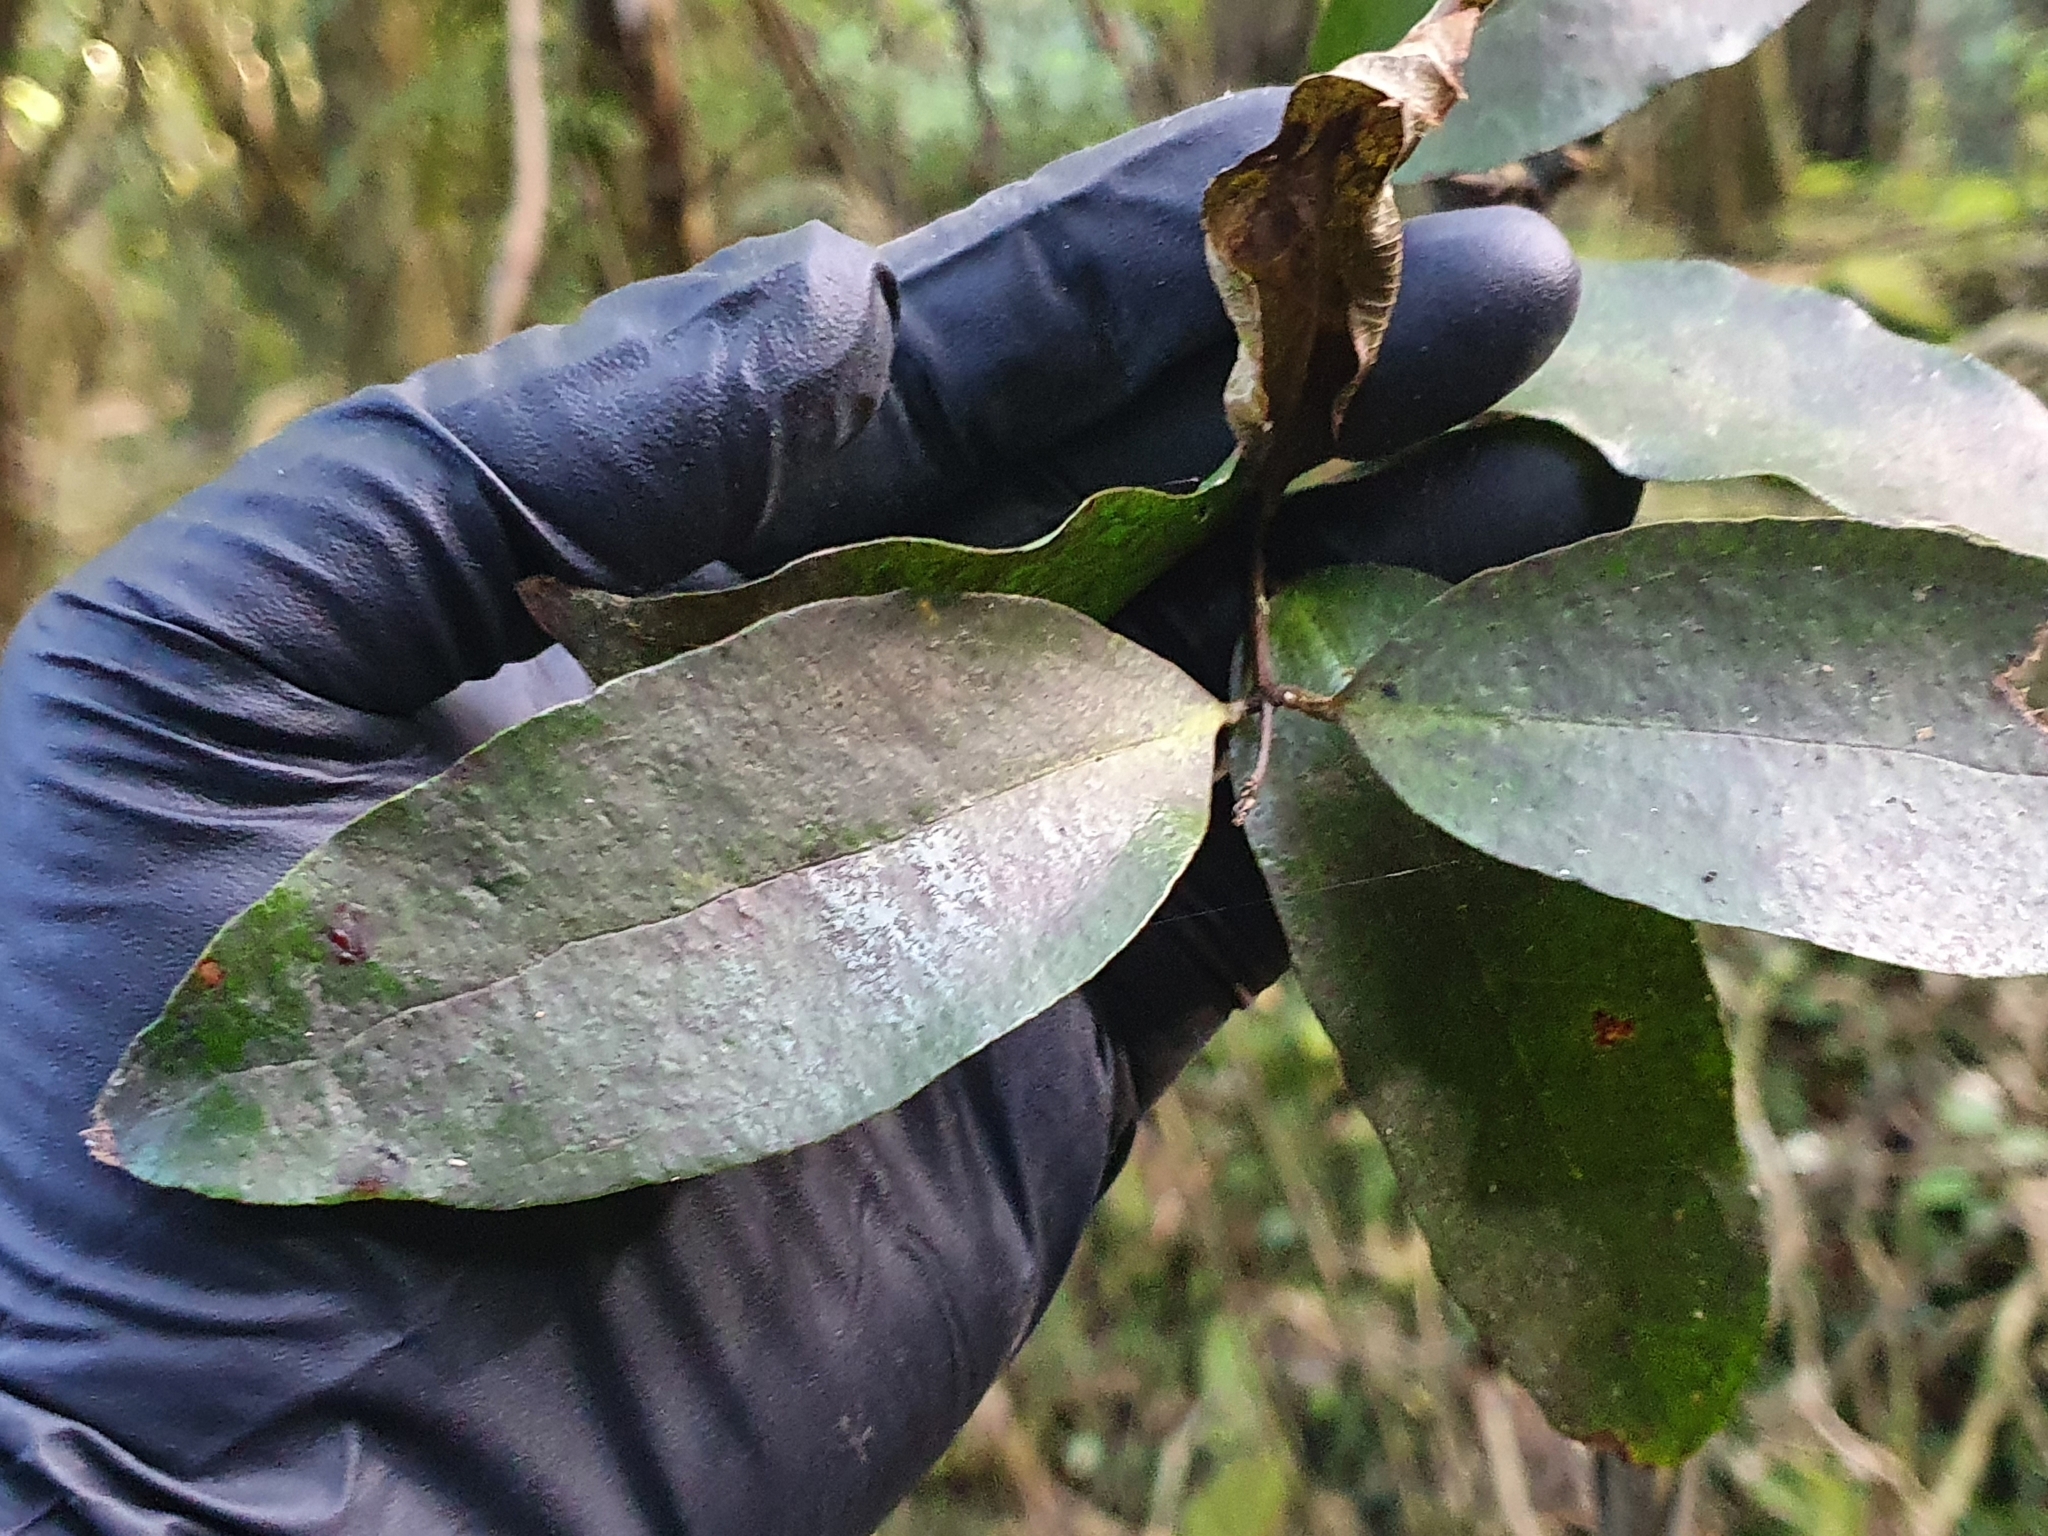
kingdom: Plantae
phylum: Tracheophyta
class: Liliopsida
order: Liliales
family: Ripogonaceae
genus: Ripogonum
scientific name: Ripogonum scandens
